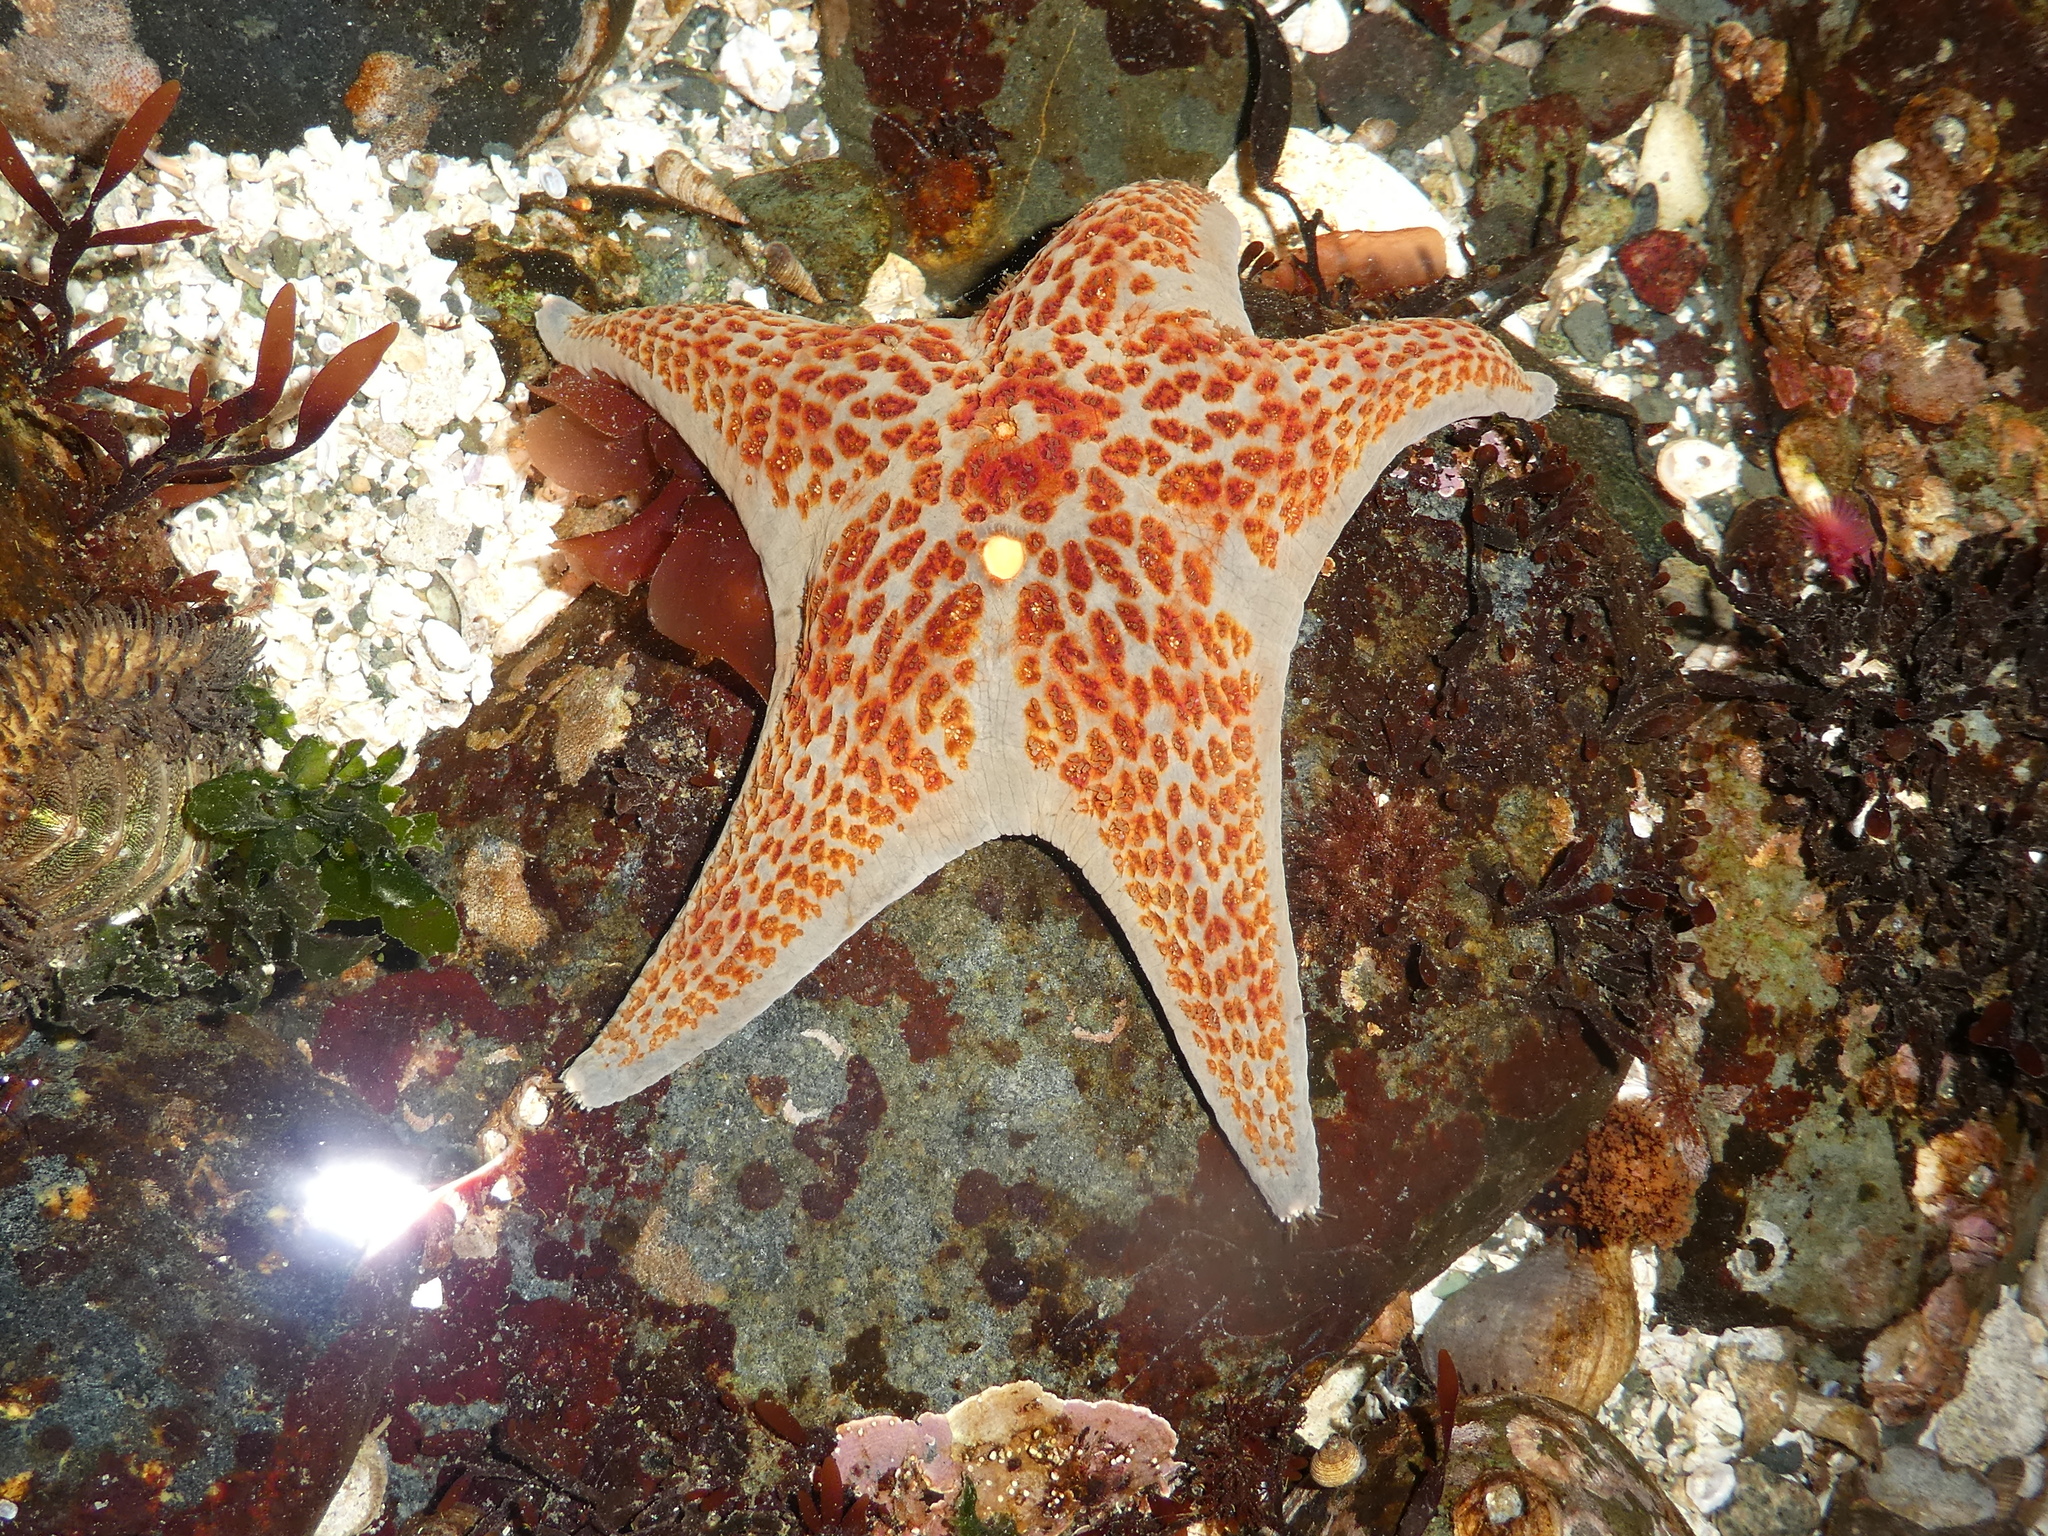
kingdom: Animalia
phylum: Echinodermata
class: Asteroidea
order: Valvatida
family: Asteropseidae
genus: Dermasterias
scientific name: Dermasterias imbricata
